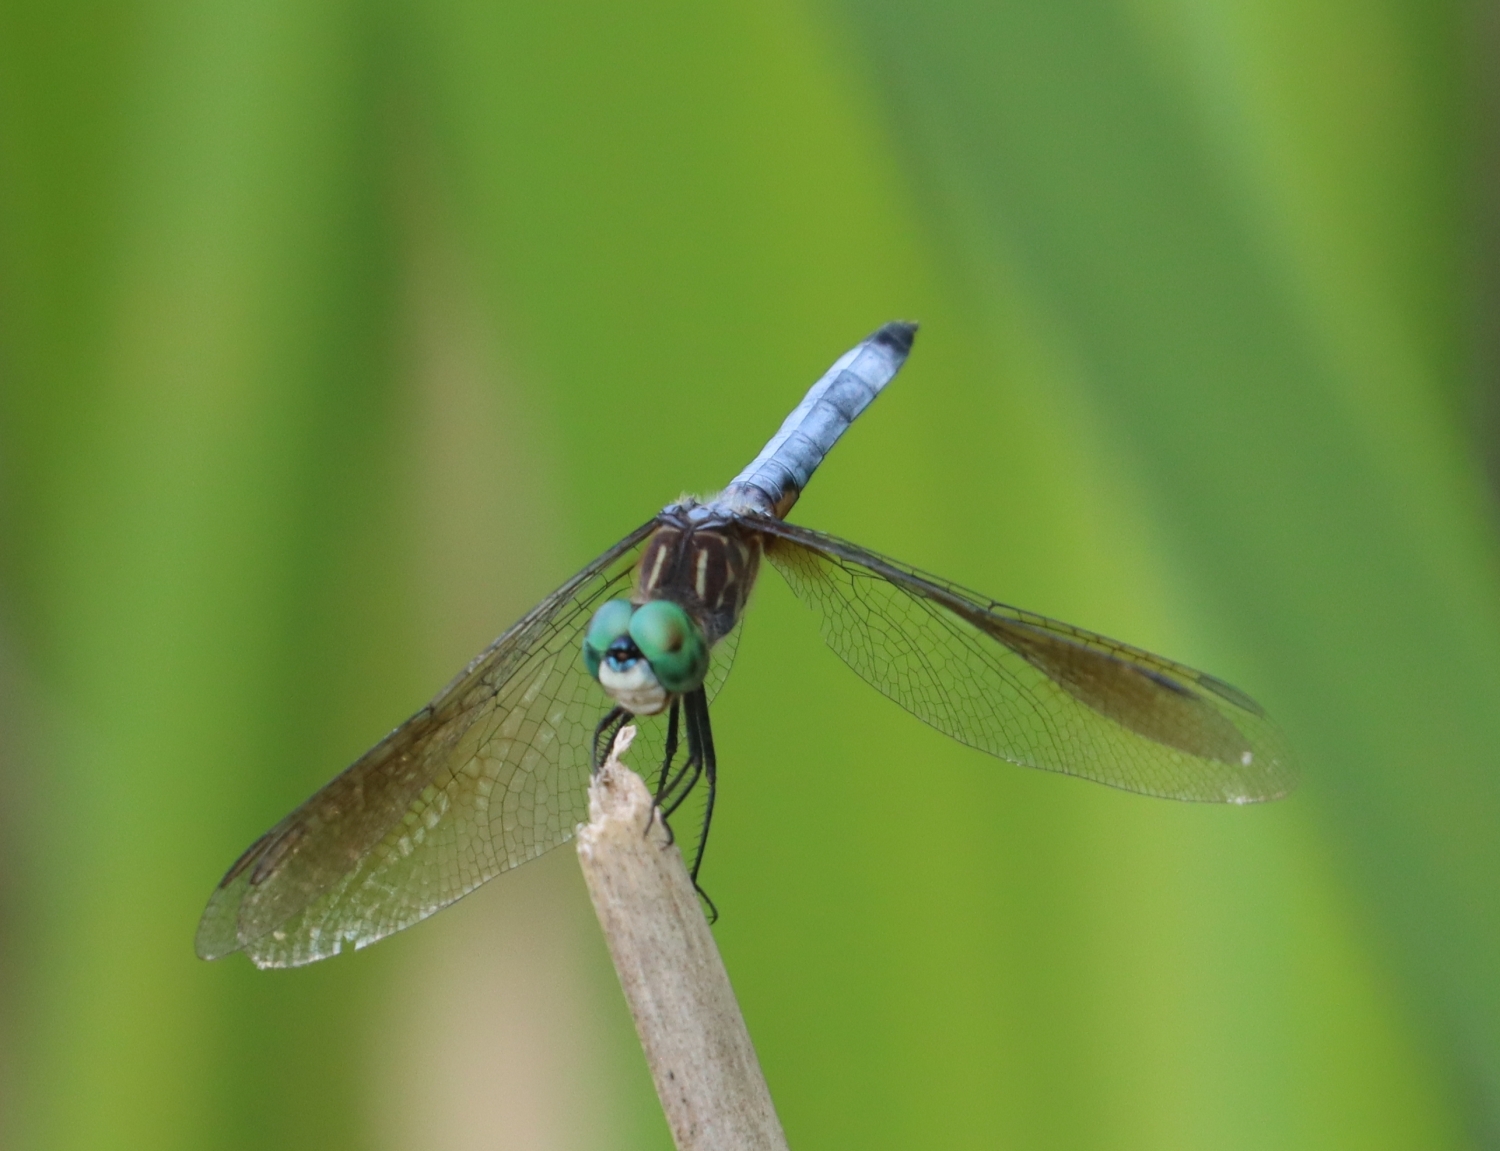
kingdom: Animalia
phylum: Arthropoda
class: Insecta
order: Odonata
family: Libellulidae
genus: Pachydiplax
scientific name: Pachydiplax longipennis
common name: Blue dasher
